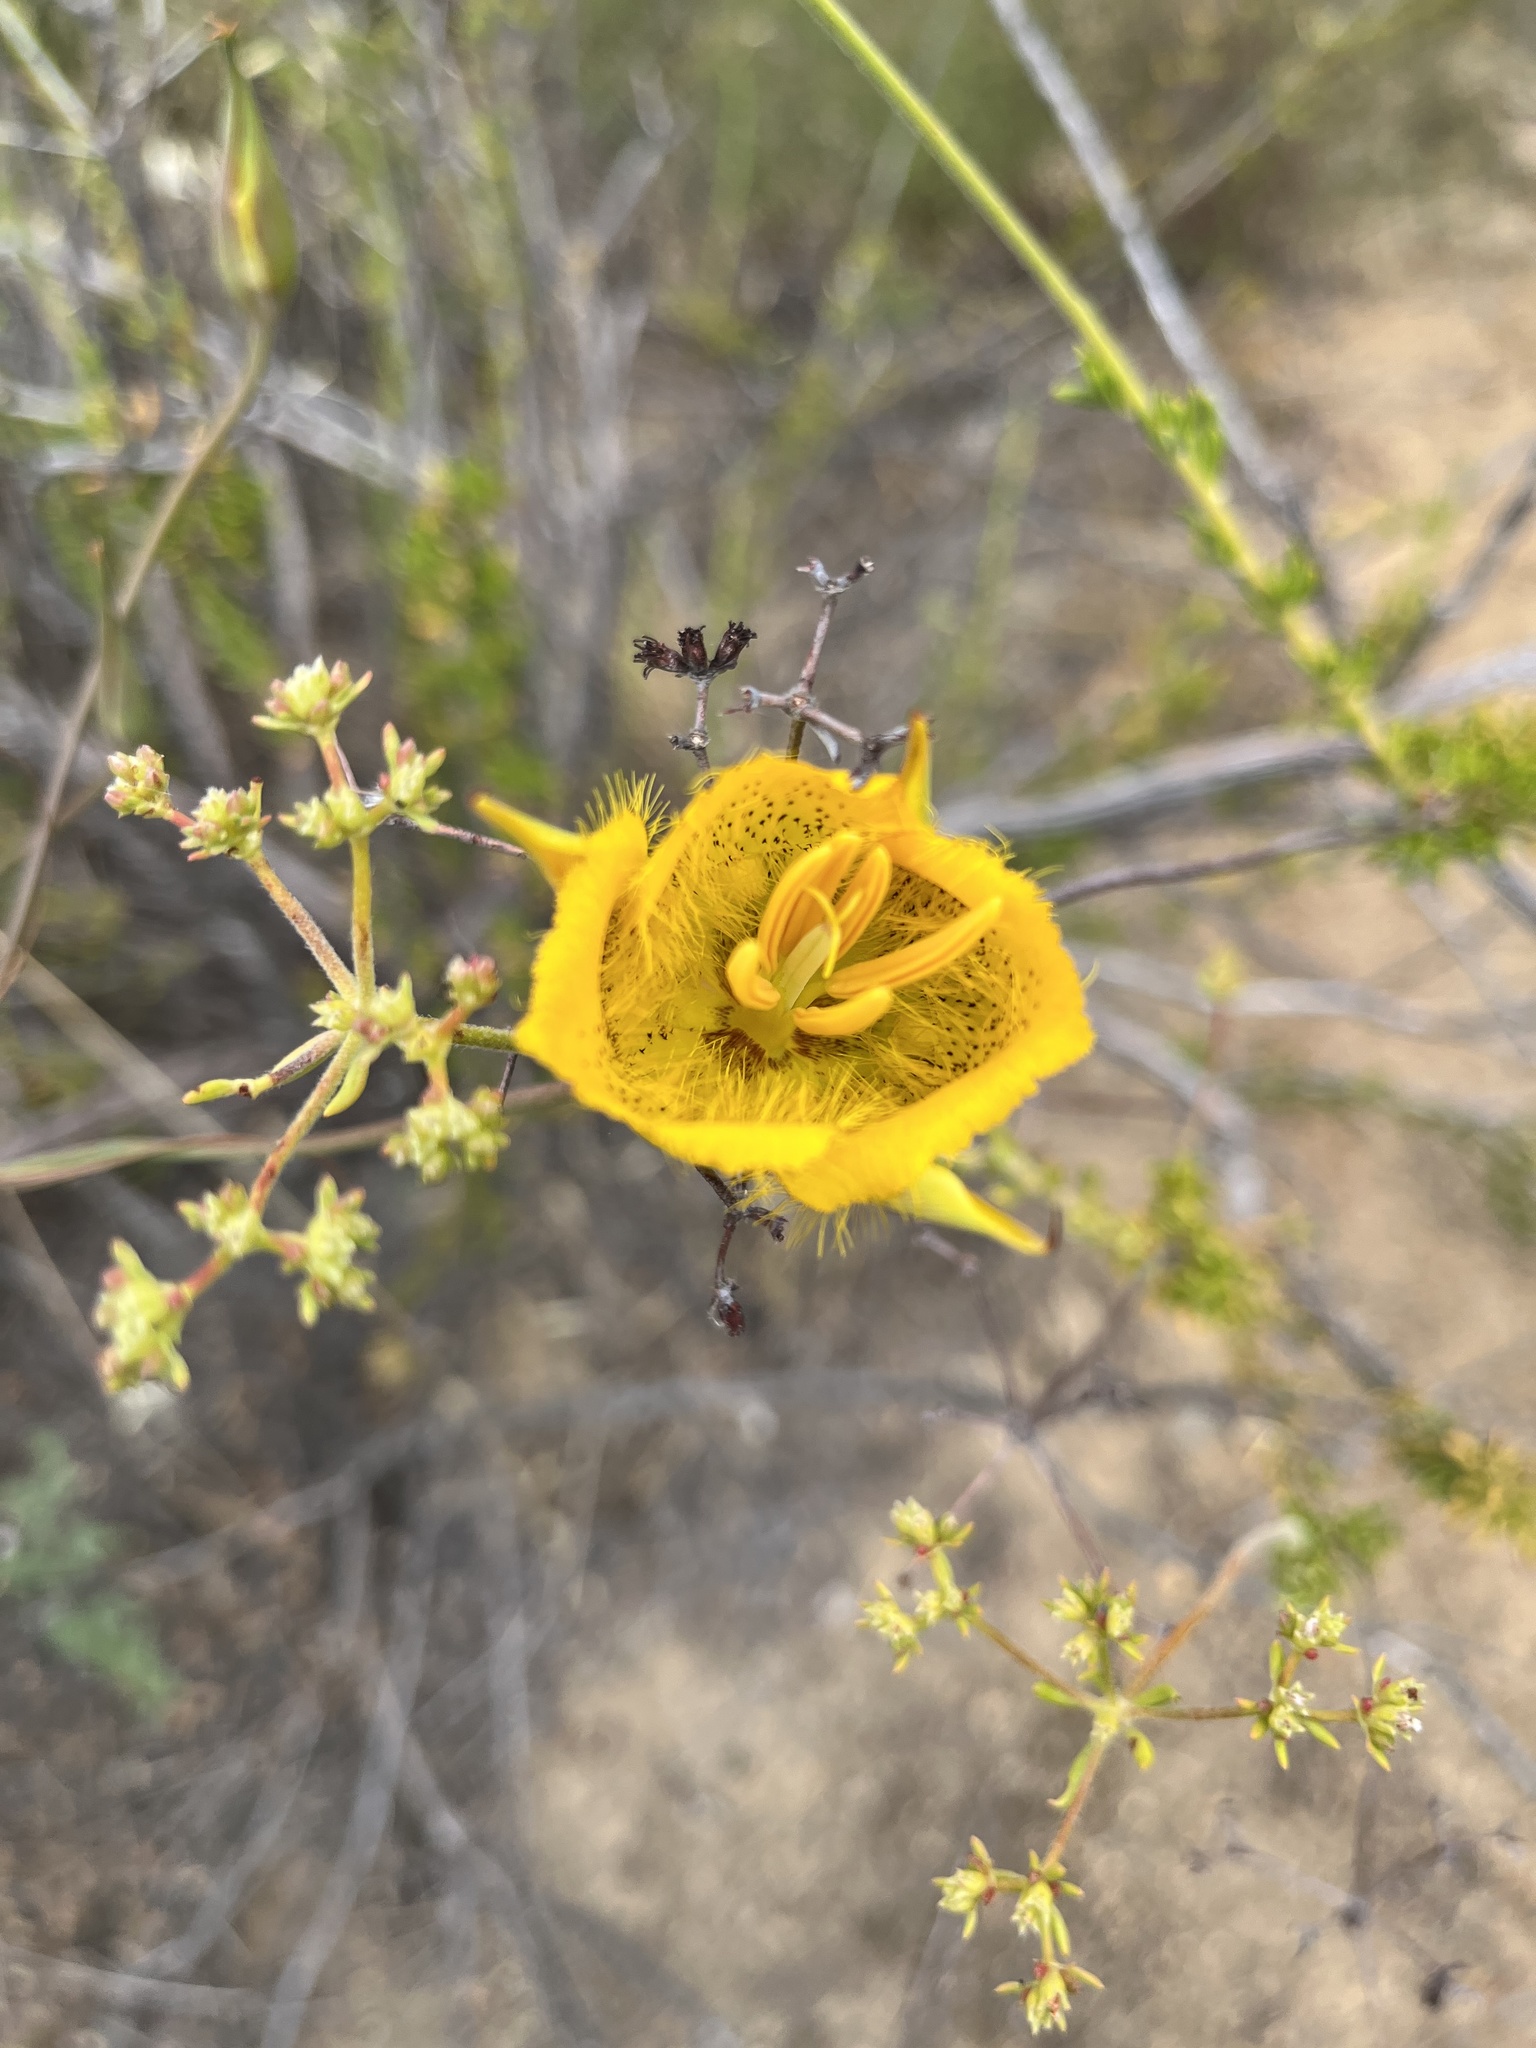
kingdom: Plantae
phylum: Tracheophyta
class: Liliopsida
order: Liliales
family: Liliaceae
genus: Calochortus
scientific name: Calochortus weedii
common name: Weed's mariposa-lily
